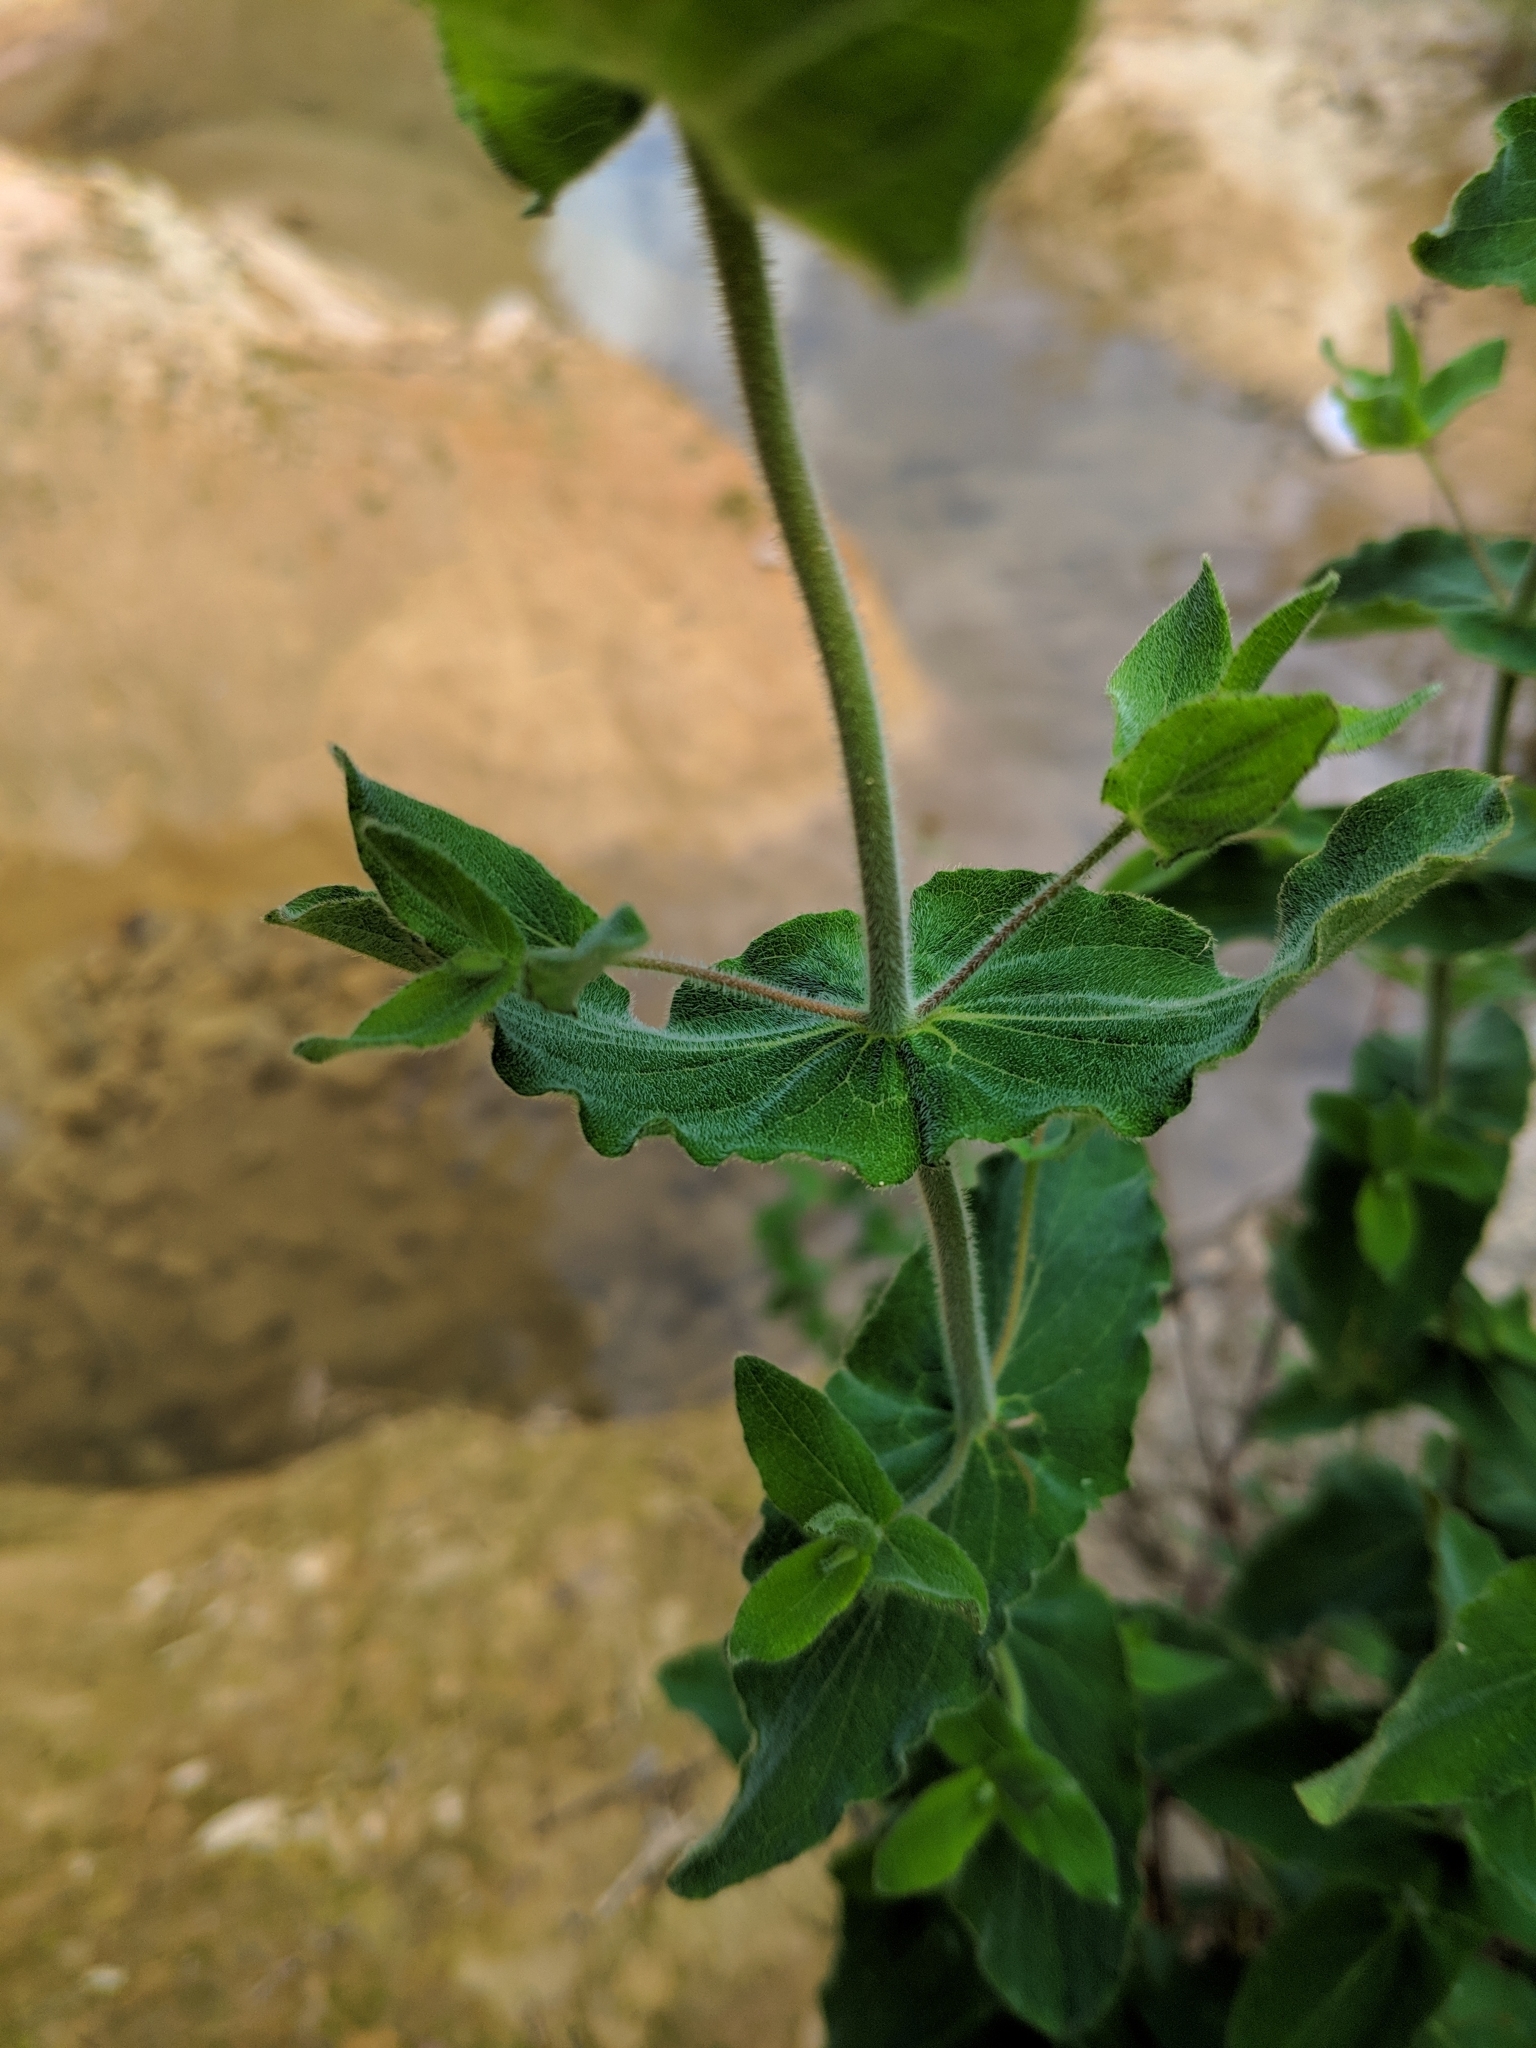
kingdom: Plantae
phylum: Tracheophyta
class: Magnoliopsida
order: Malpighiales
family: Hypericaceae
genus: Hypericum
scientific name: Hypericum caprifolium
